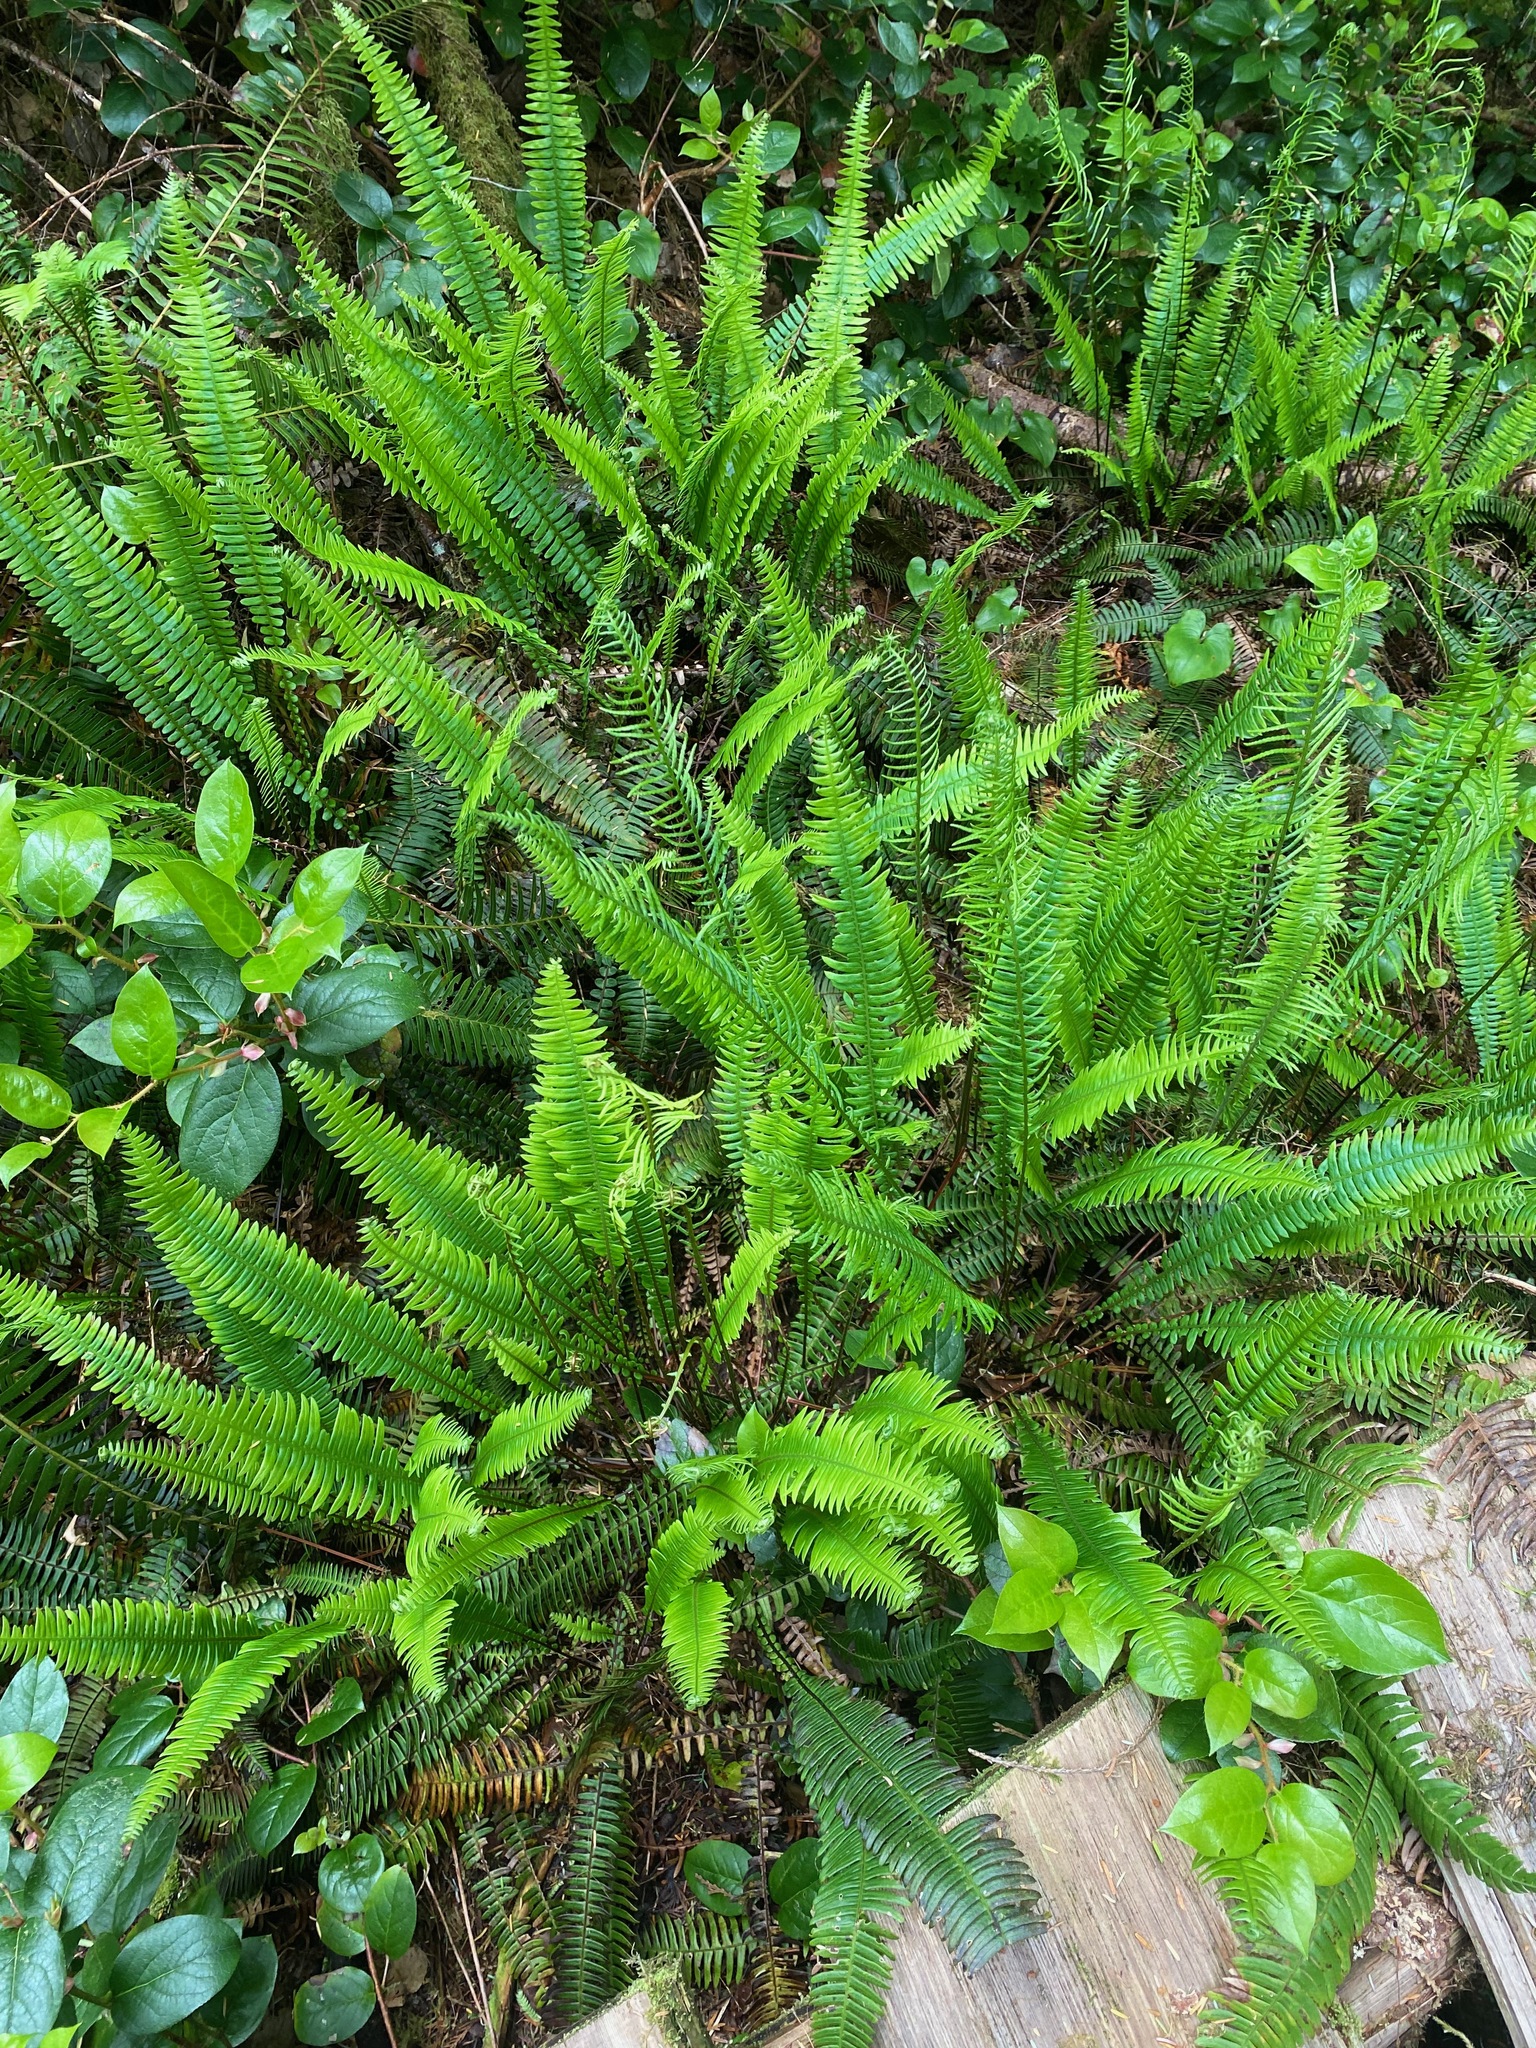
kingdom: Plantae
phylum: Tracheophyta
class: Polypodiopsida
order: Polypodiales
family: Blechnaceae
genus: Struthiopteris
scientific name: Struthiopteris spicant
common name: Deer fern
